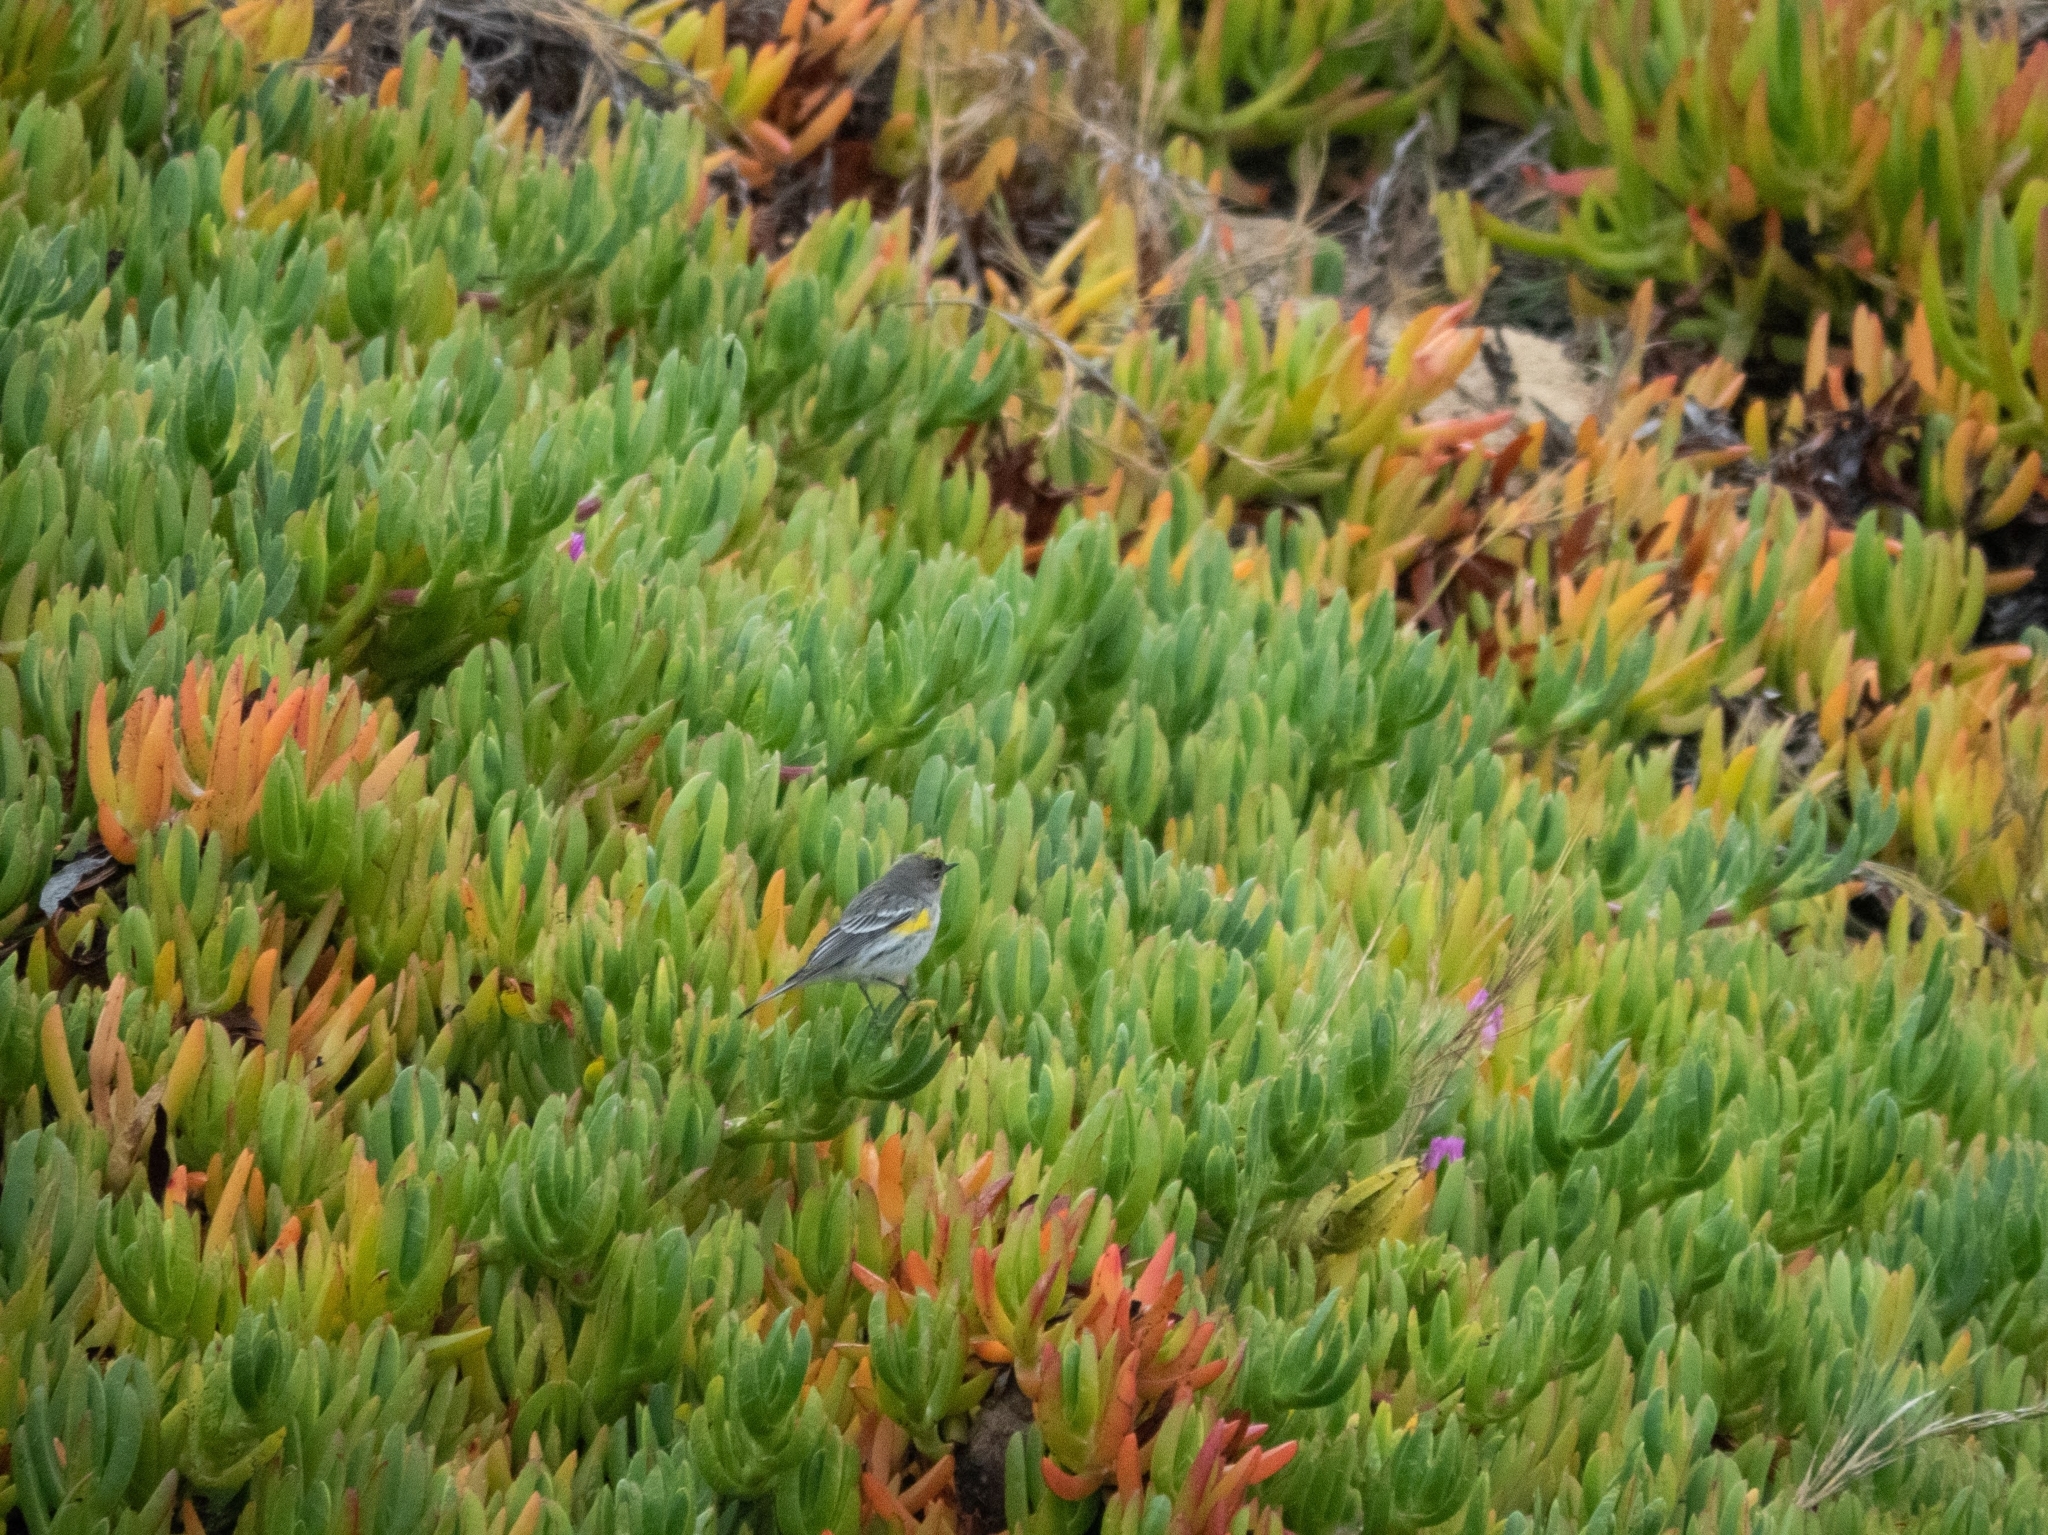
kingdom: Animalia
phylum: Chordata
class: Aves
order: Passeriformes
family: Parulidae
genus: Setophaga
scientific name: Setophaga coronata
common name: Myrtle warbler
